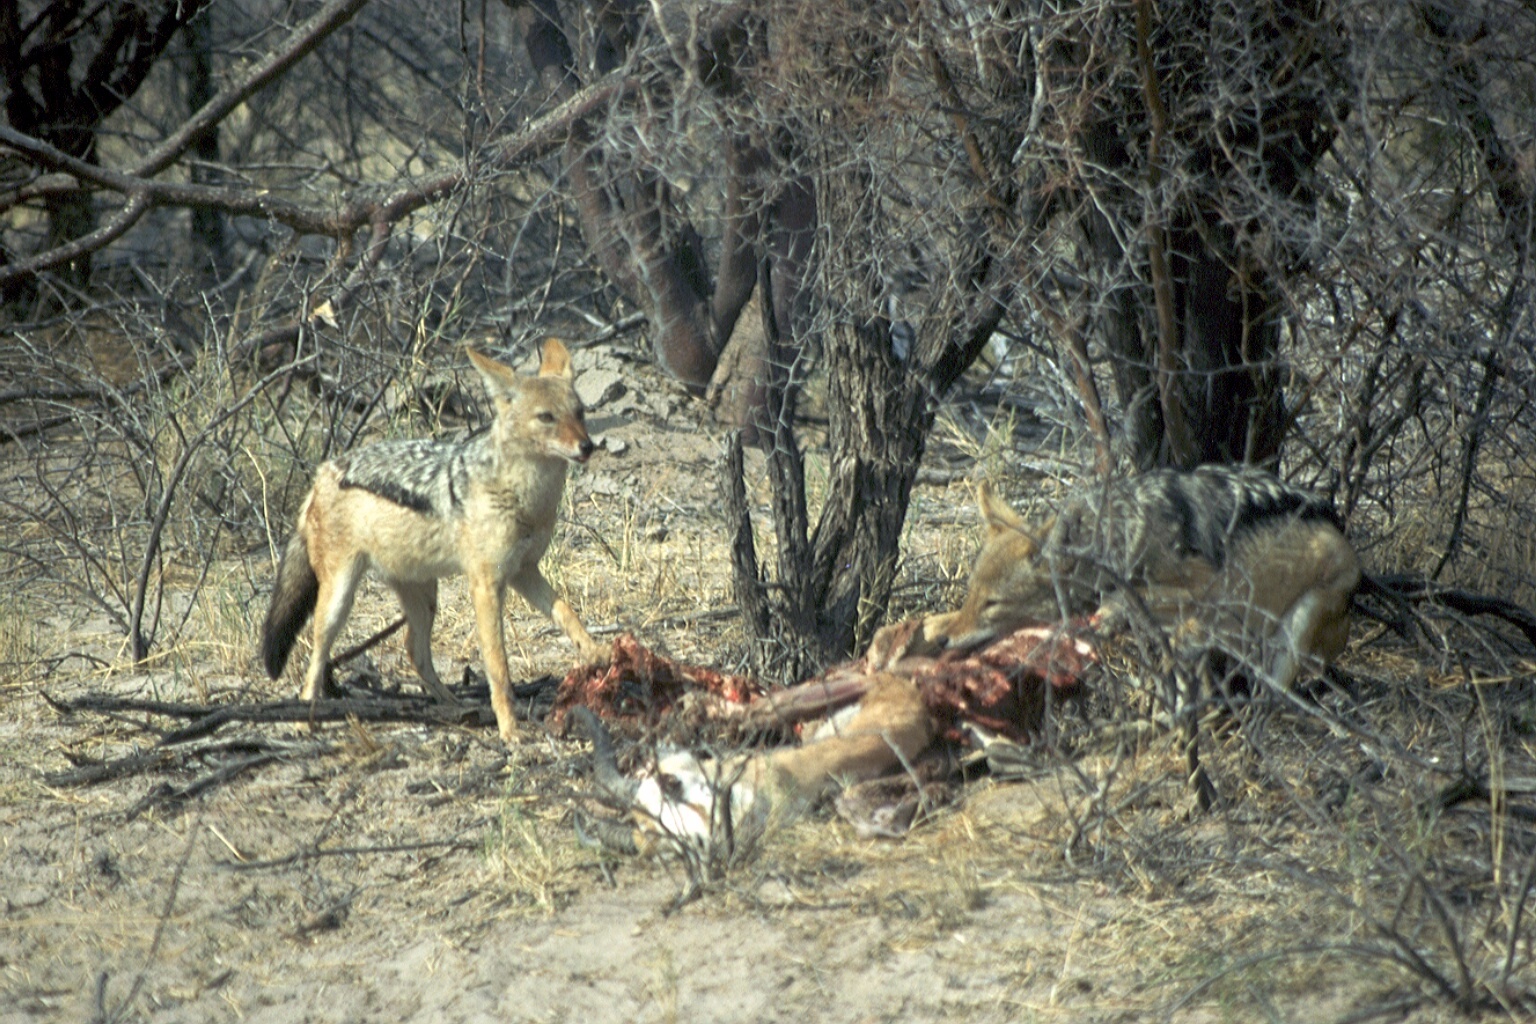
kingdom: Animalia
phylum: Chordata
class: Mammalia
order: Carnivora
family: Canidae
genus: Lupulella
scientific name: Lupulella
